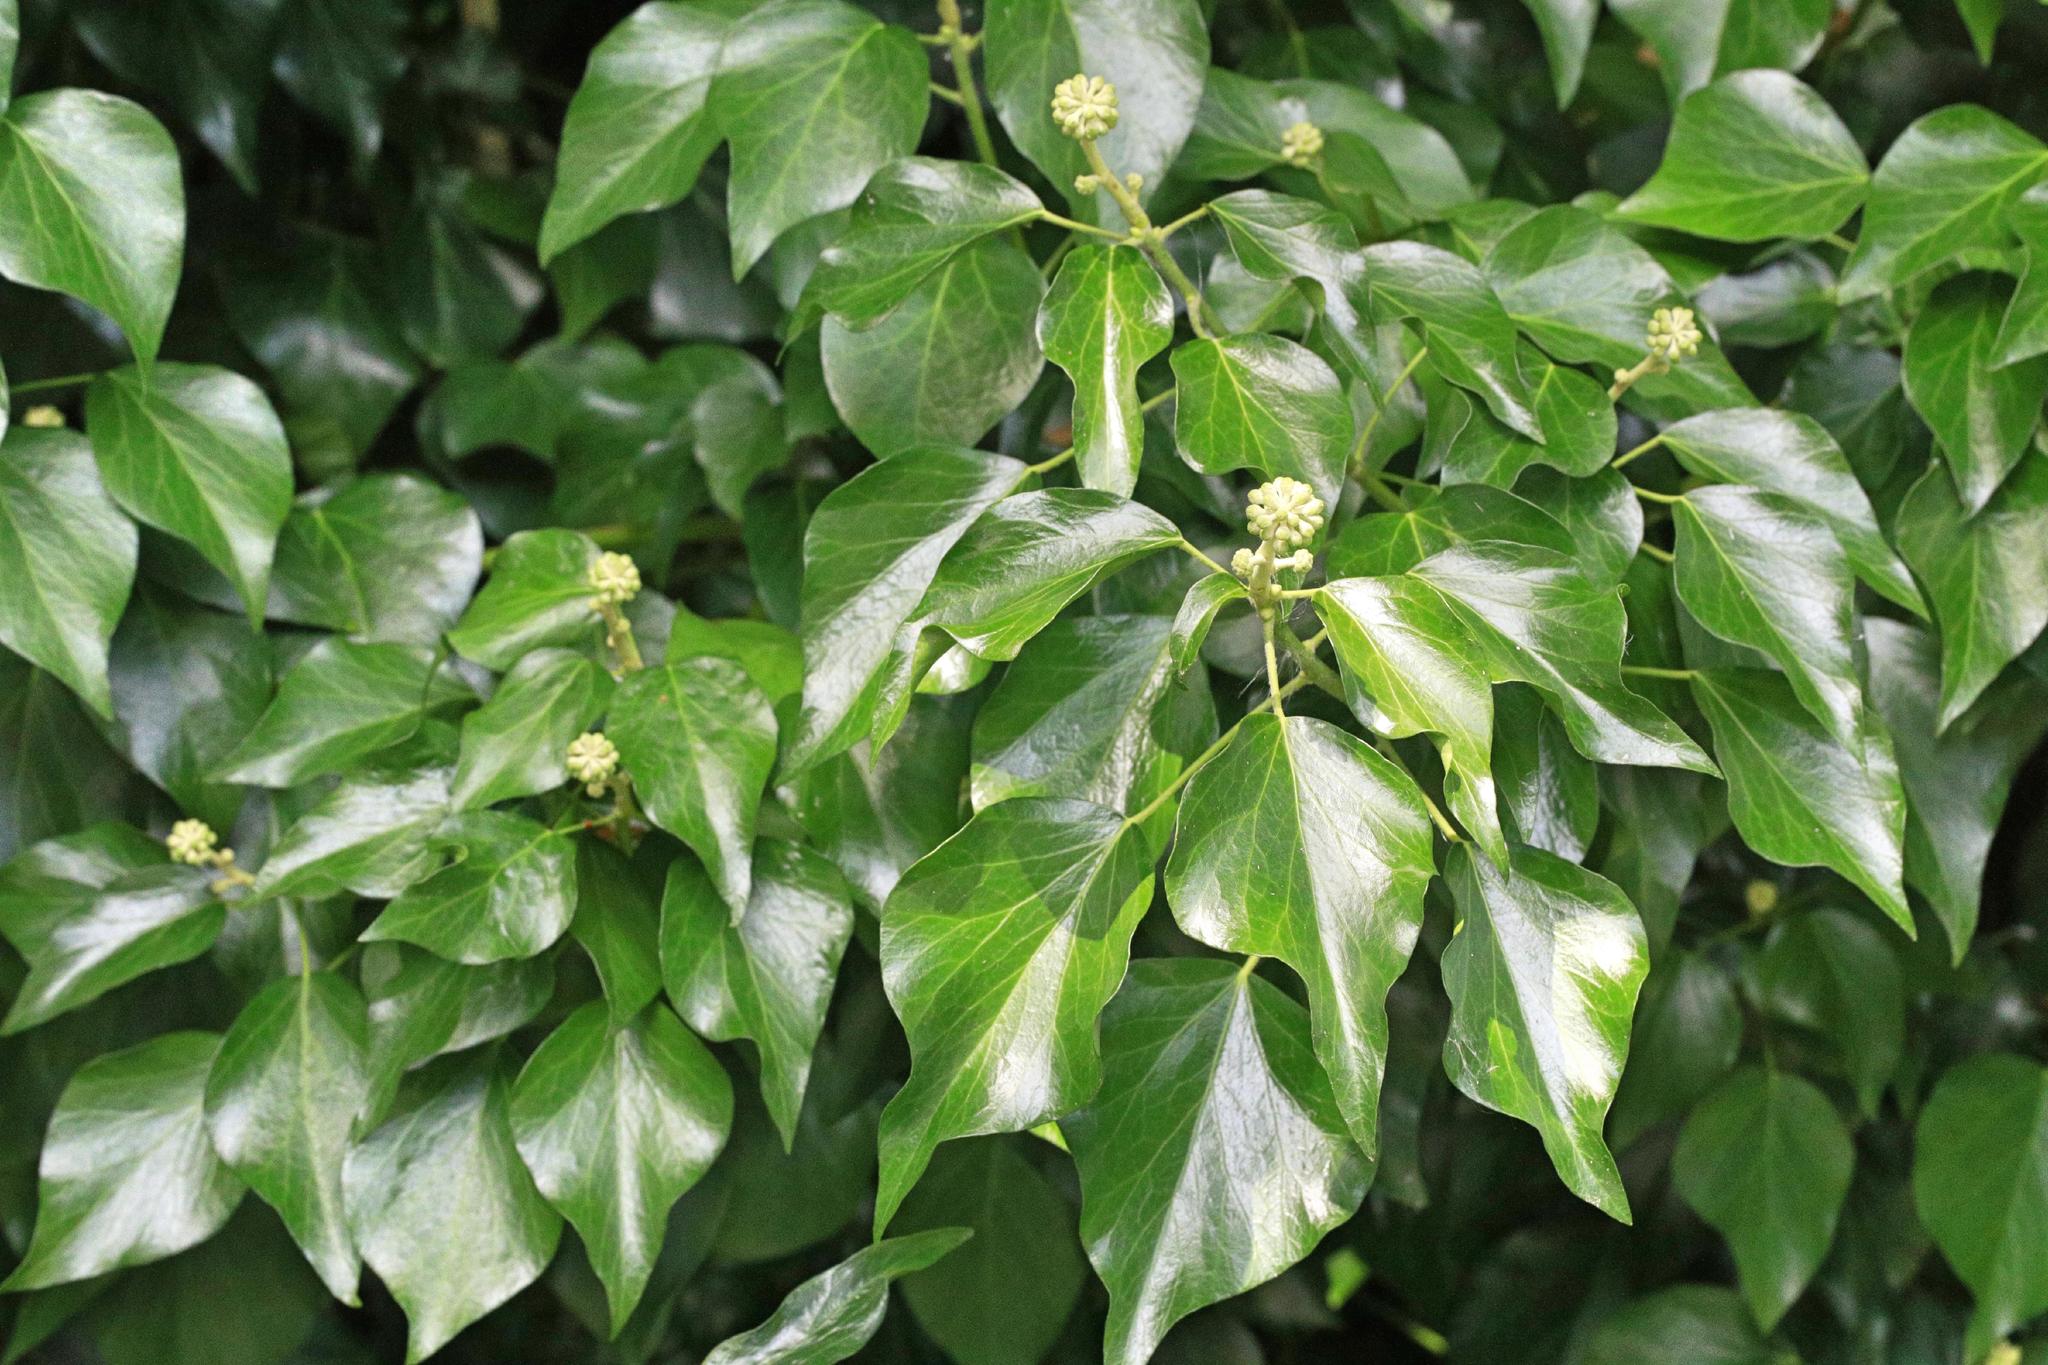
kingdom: Plantae
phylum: Tracheophyta
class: Magnoliopsida
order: Apiales
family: Araliaceae
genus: Hedera
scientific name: Hedera helix
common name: Ivy
